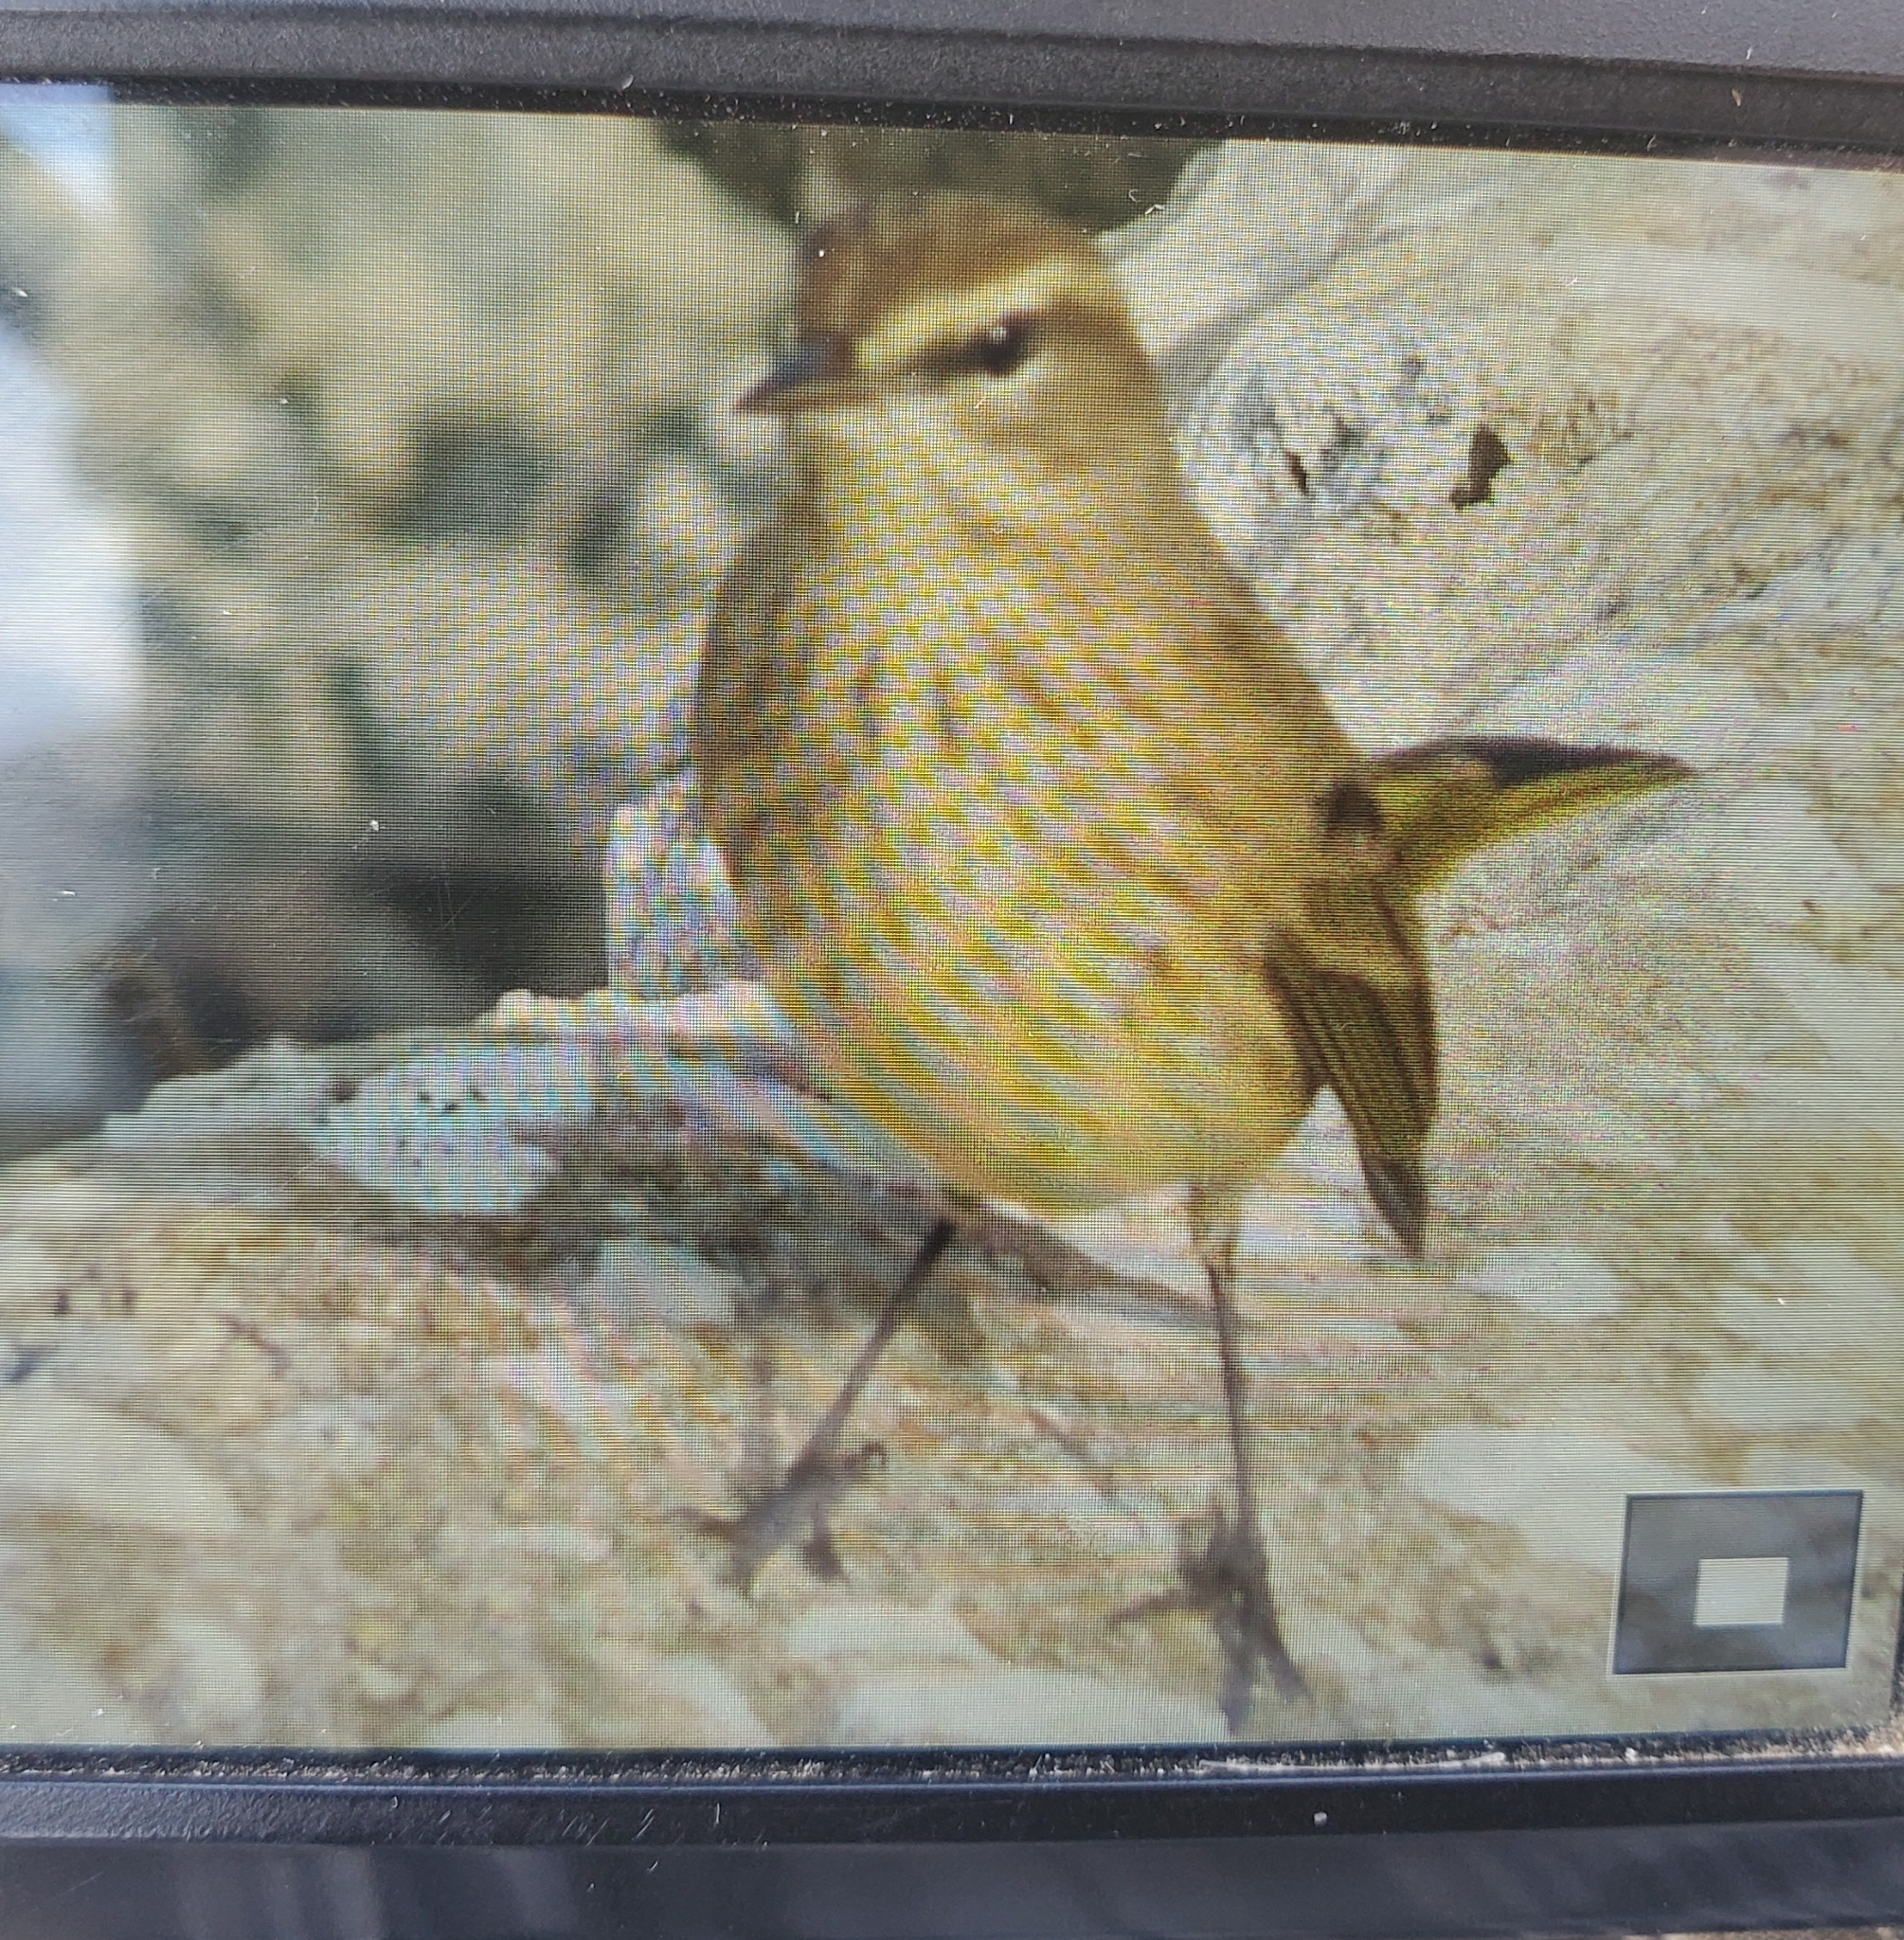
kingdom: Animalia
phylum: Chordata
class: Aves
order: Passeriformes
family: Parulidae
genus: Setophaga
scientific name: Setophaga palmarum
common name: Palm warbler
